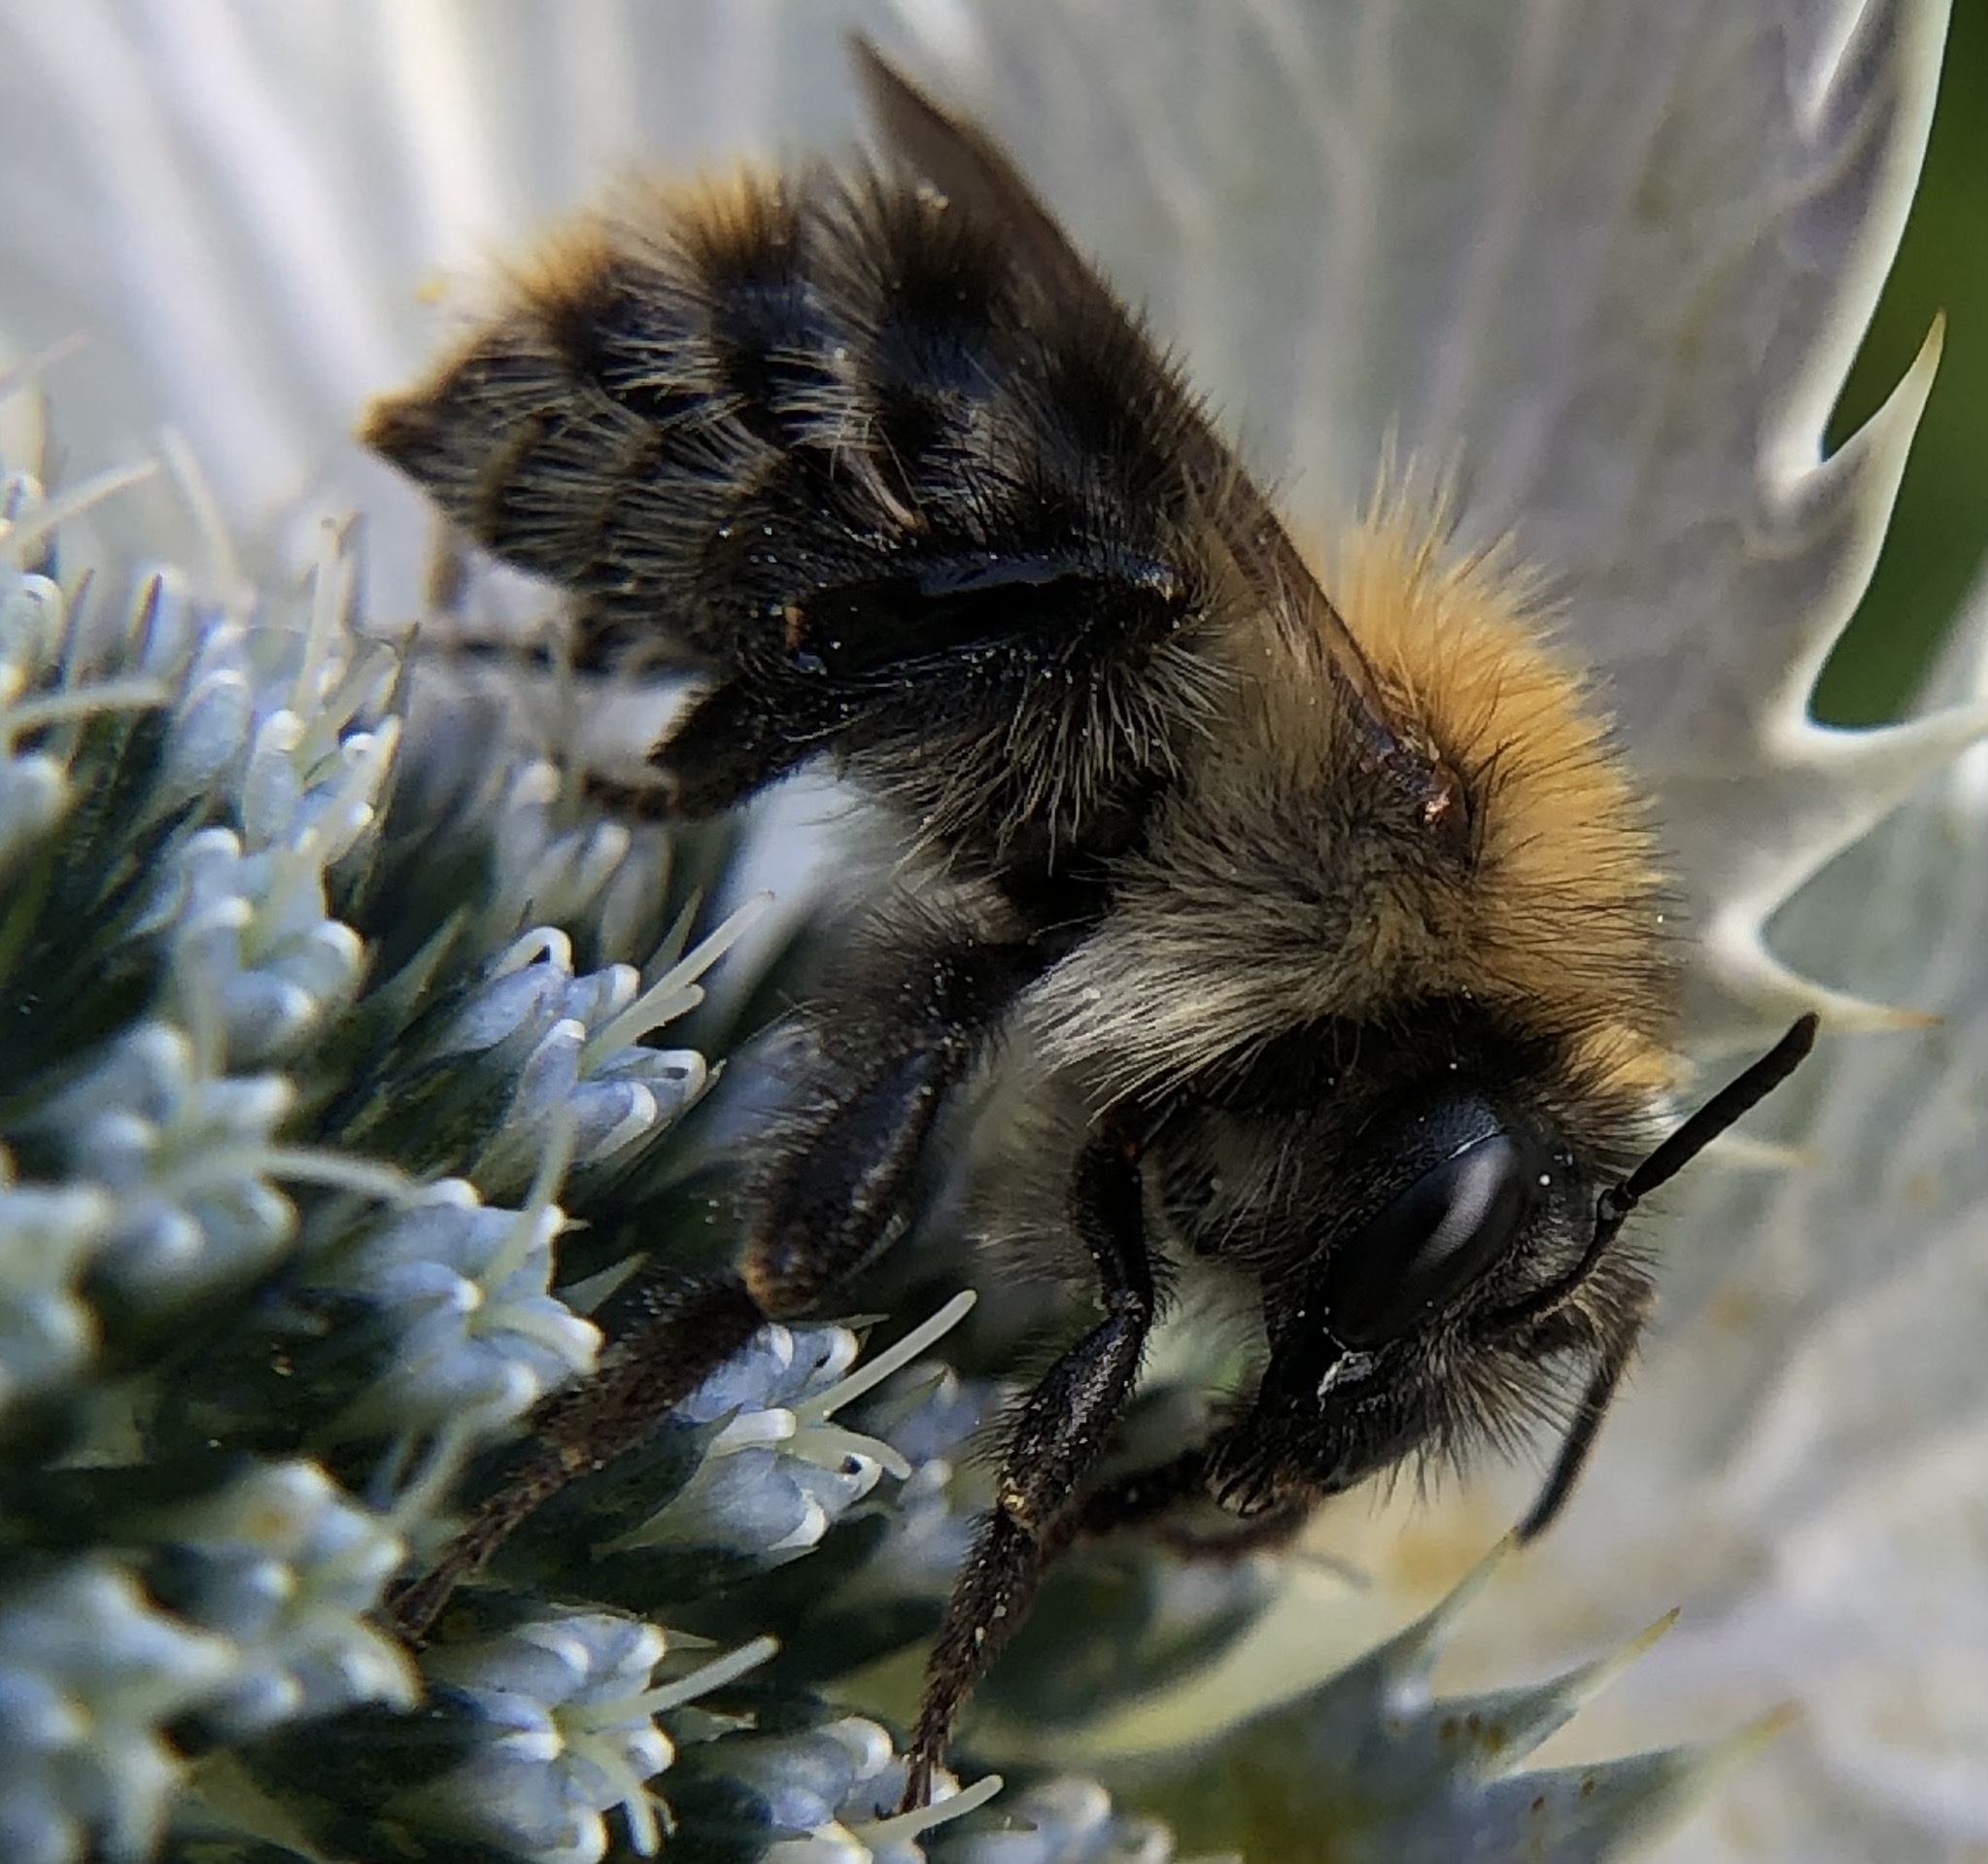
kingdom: Animalia
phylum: Arthropoda
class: Insecta
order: Hymenoptera
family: Apidae
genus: Bombus
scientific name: Bombus pascuorum
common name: Common carder bee
